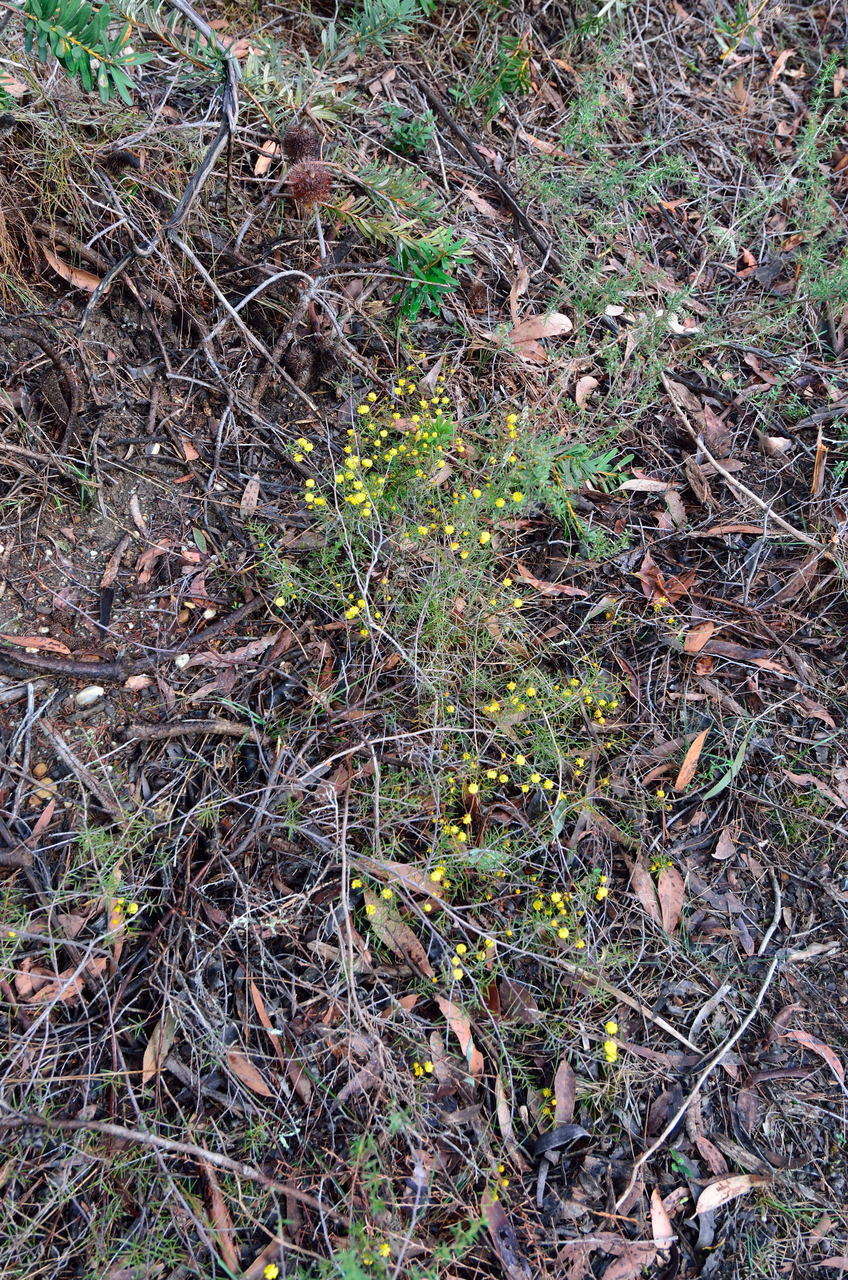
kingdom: Plantae
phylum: Tracheophyta
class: Magnoliopsida
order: Fabales
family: Fabaceae
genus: Acacia
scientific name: Acacia brownii
